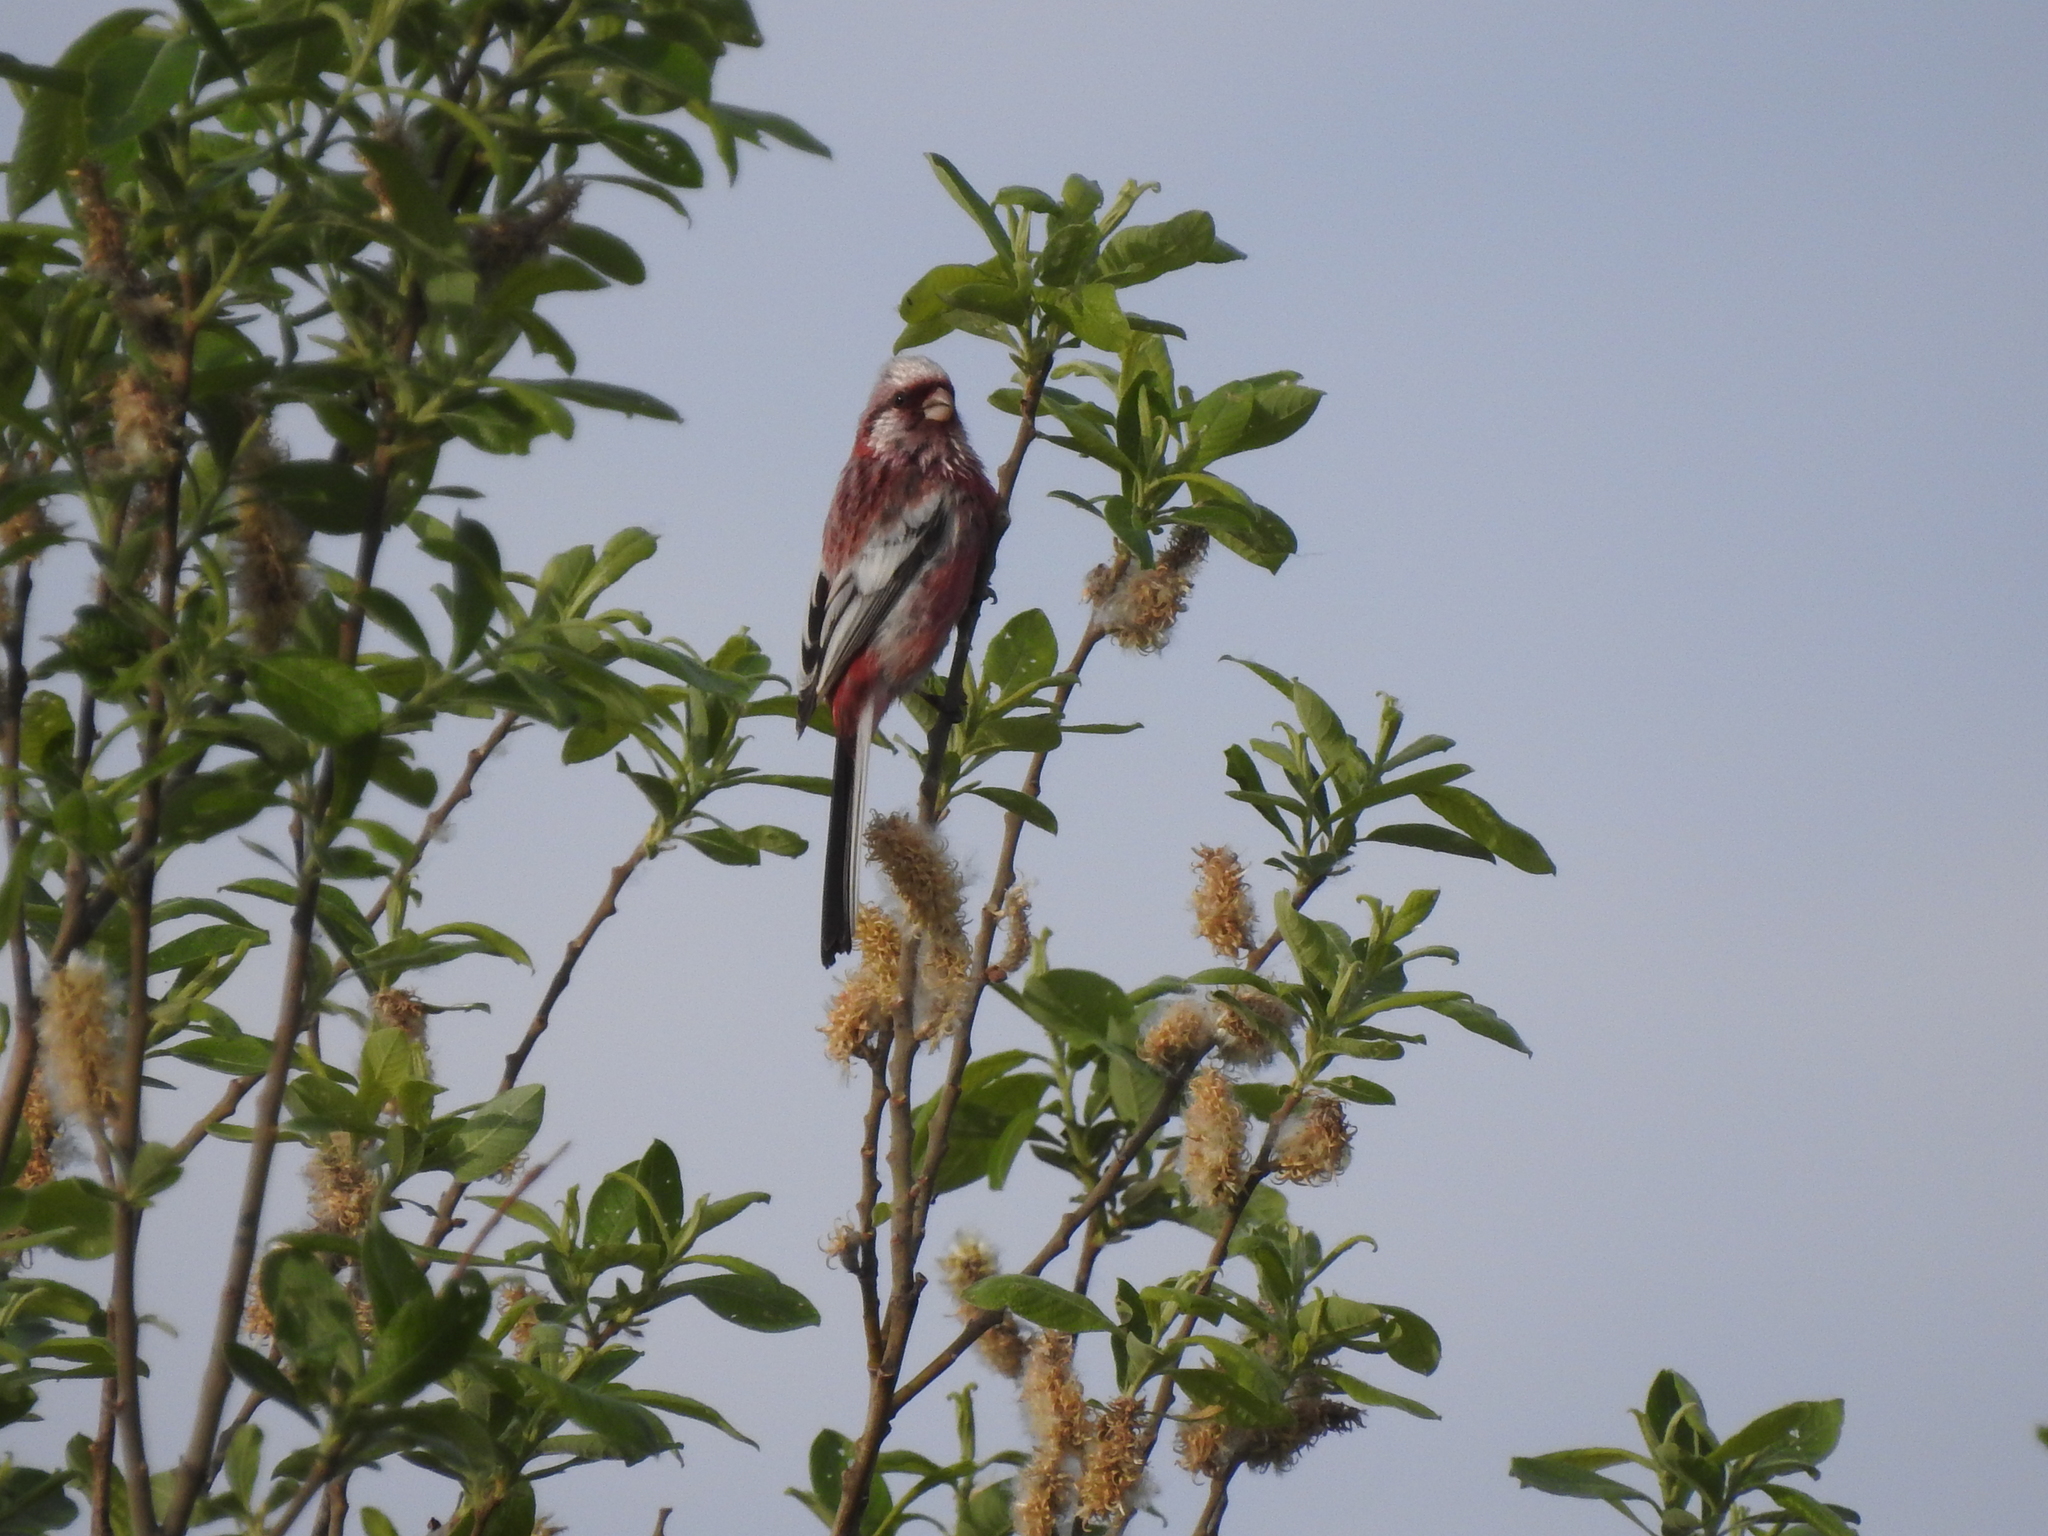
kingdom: Animalia
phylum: Chordata
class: Aves
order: Passeriformes
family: Fringillidae
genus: Carpodacus
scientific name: Carpodacus sibiricus
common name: Long-tailed rosefinch
